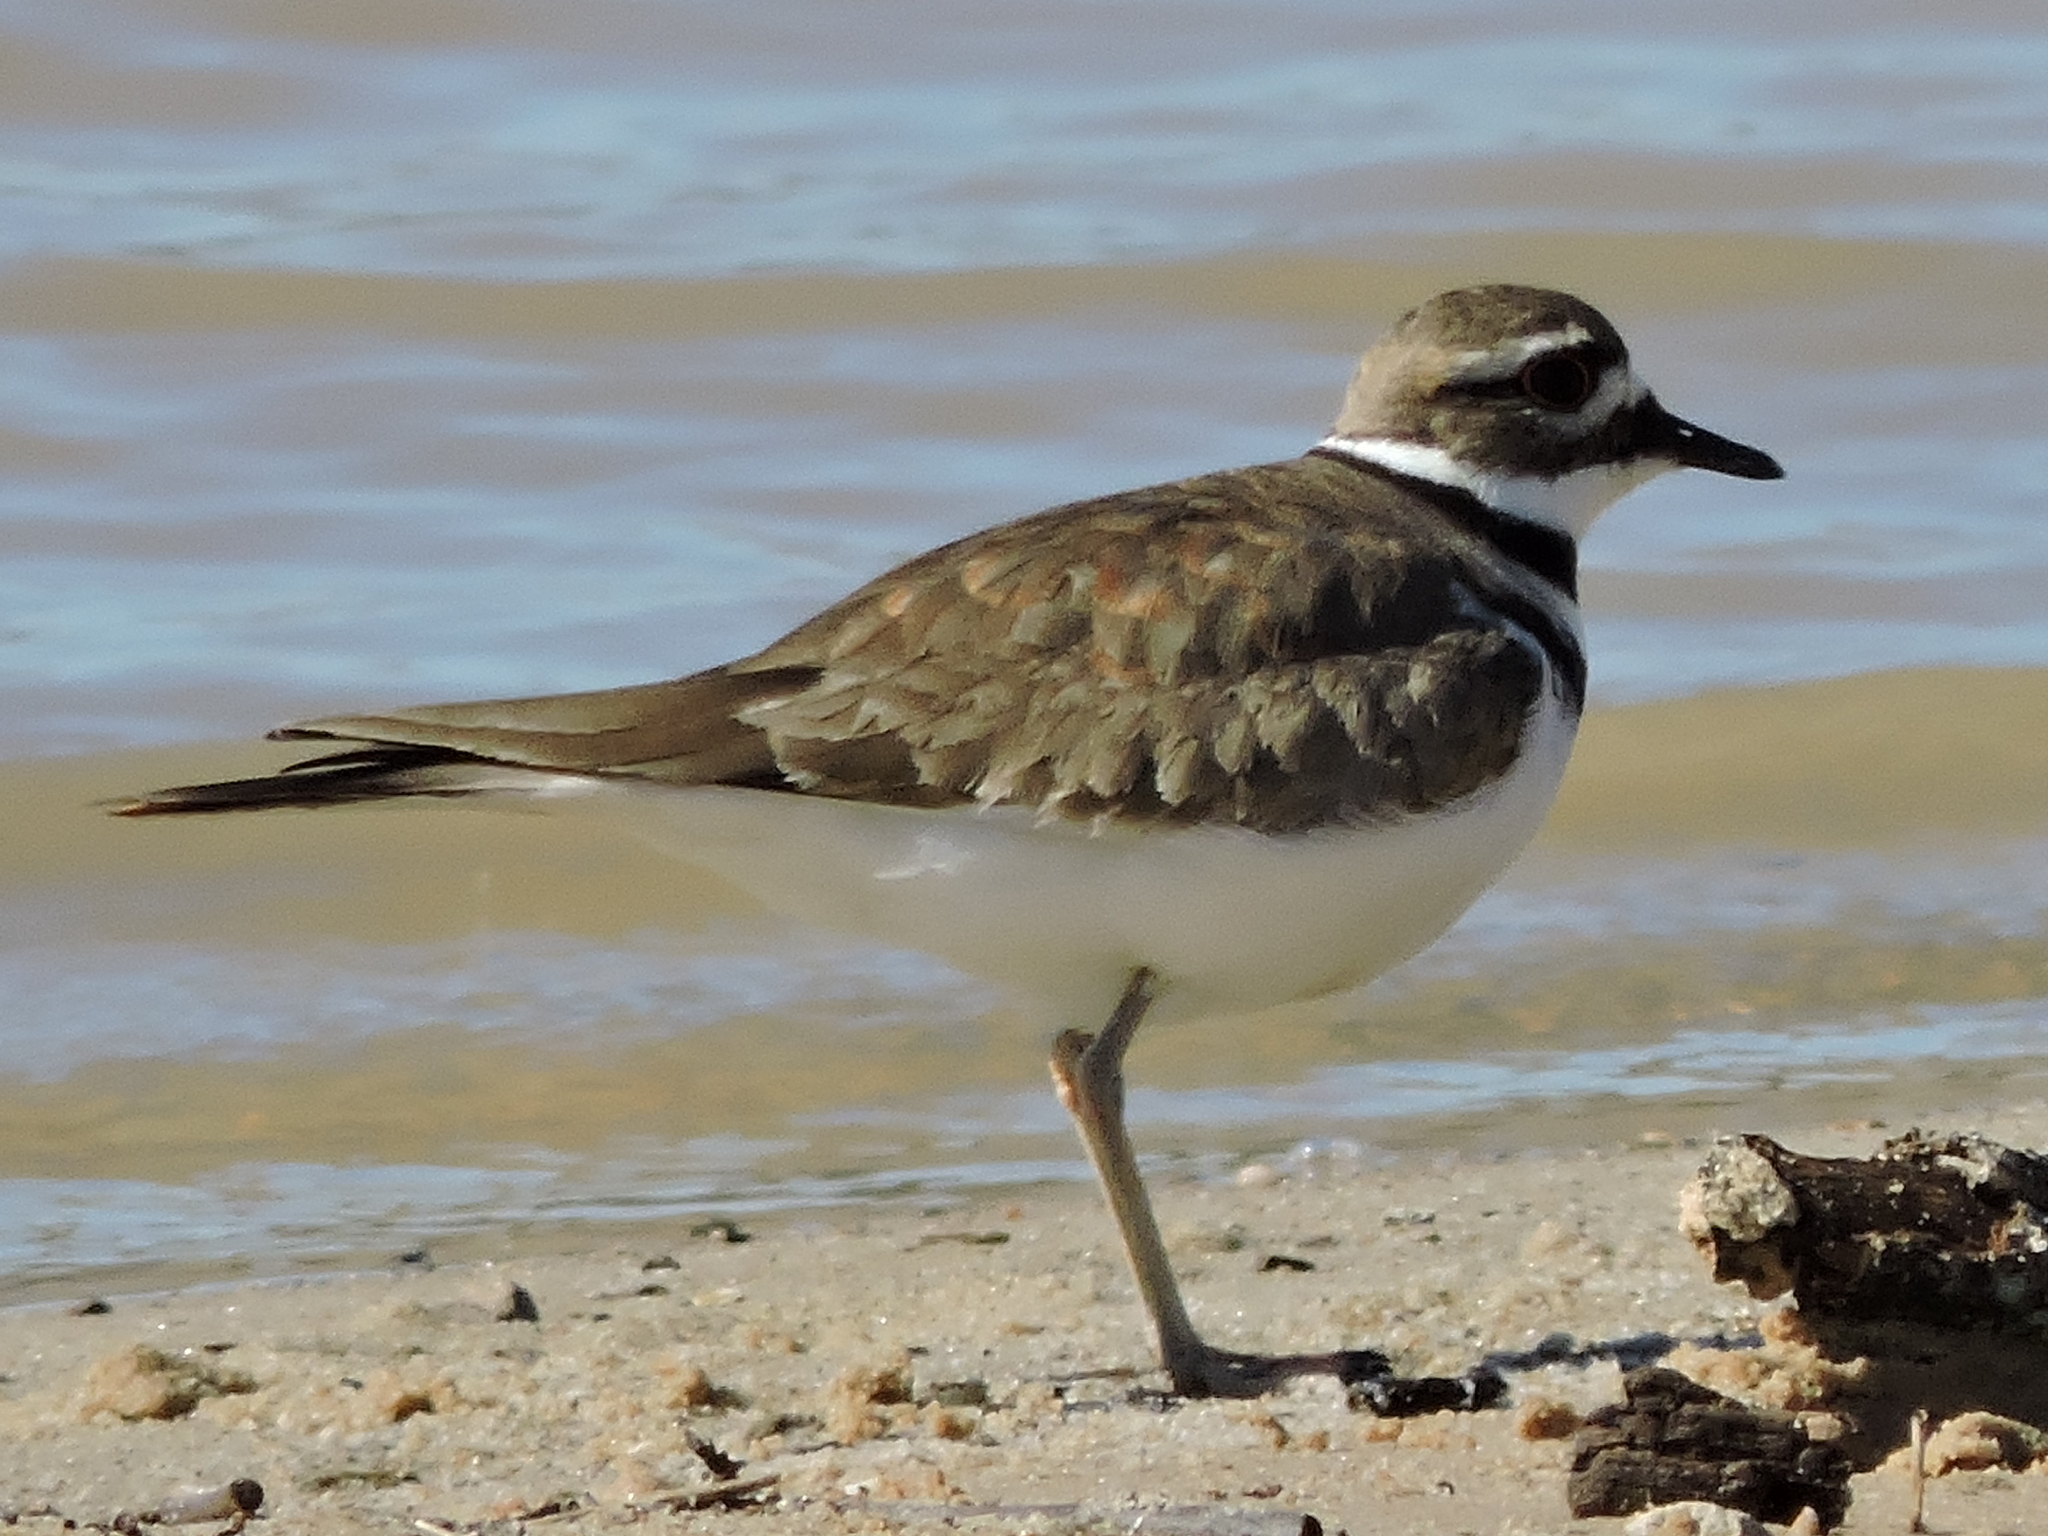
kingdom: Animalia
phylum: Chordata
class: Aves
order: Charadriiformes
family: Charadriidae
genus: Charadrius
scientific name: Charadrius vociferus
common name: Killdeer
